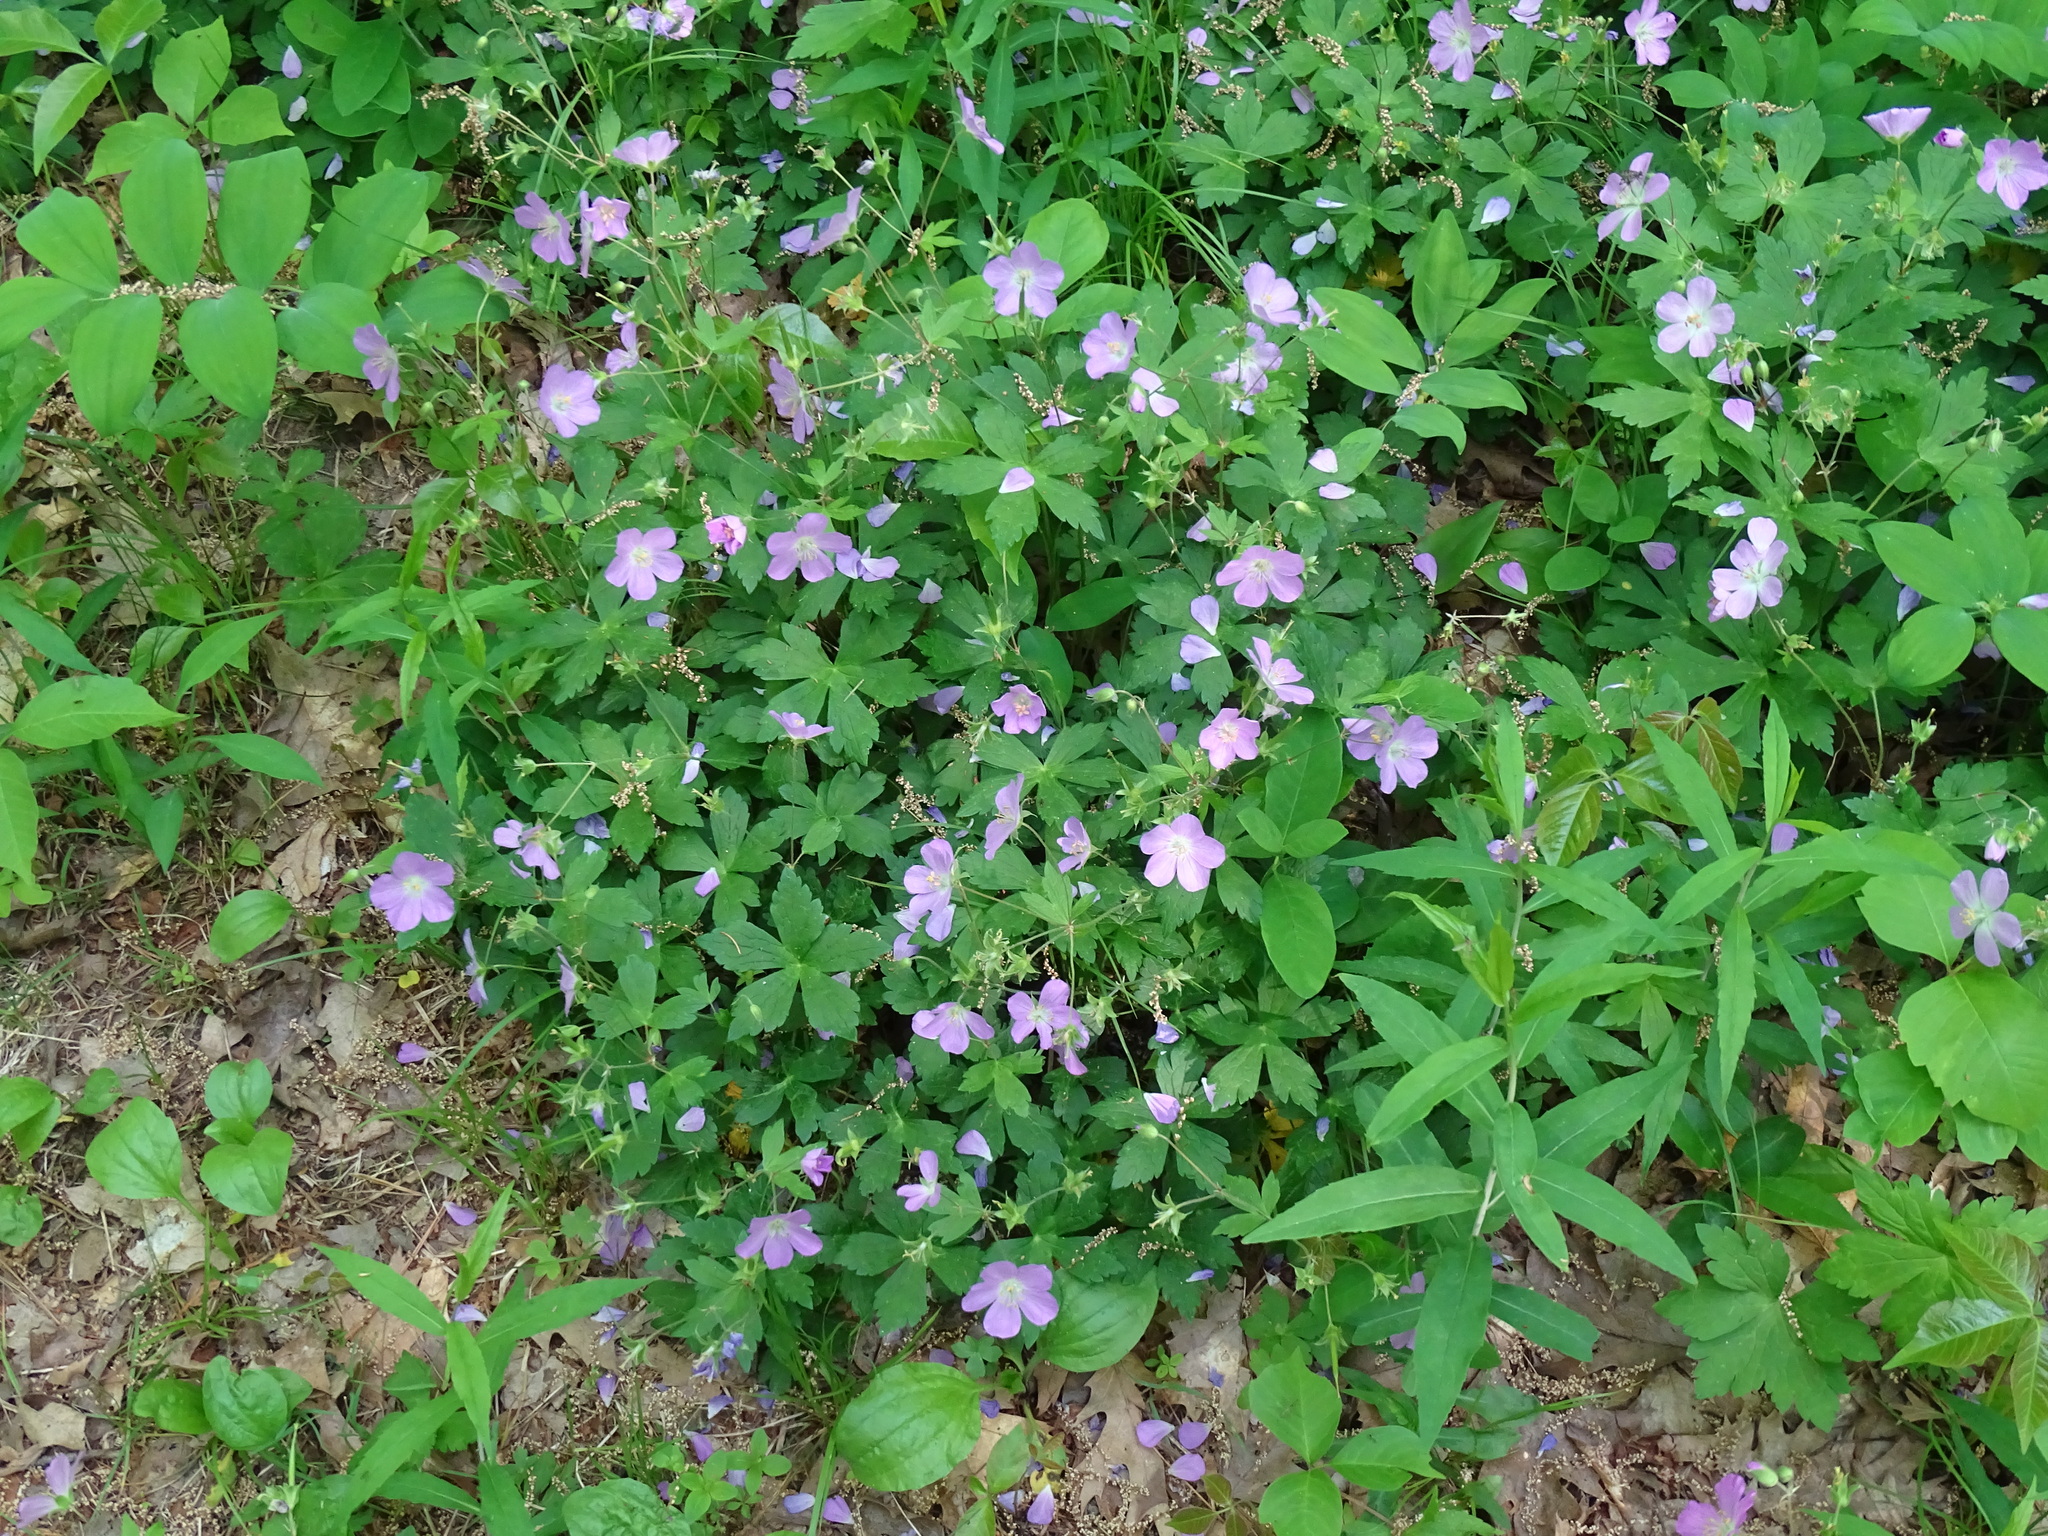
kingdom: Plantae
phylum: Tracheophyta
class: Magnoliopsida
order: Geraniales
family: Geraniaceae
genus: Geranium
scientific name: Geranium maculatum
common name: Spotted geranium
